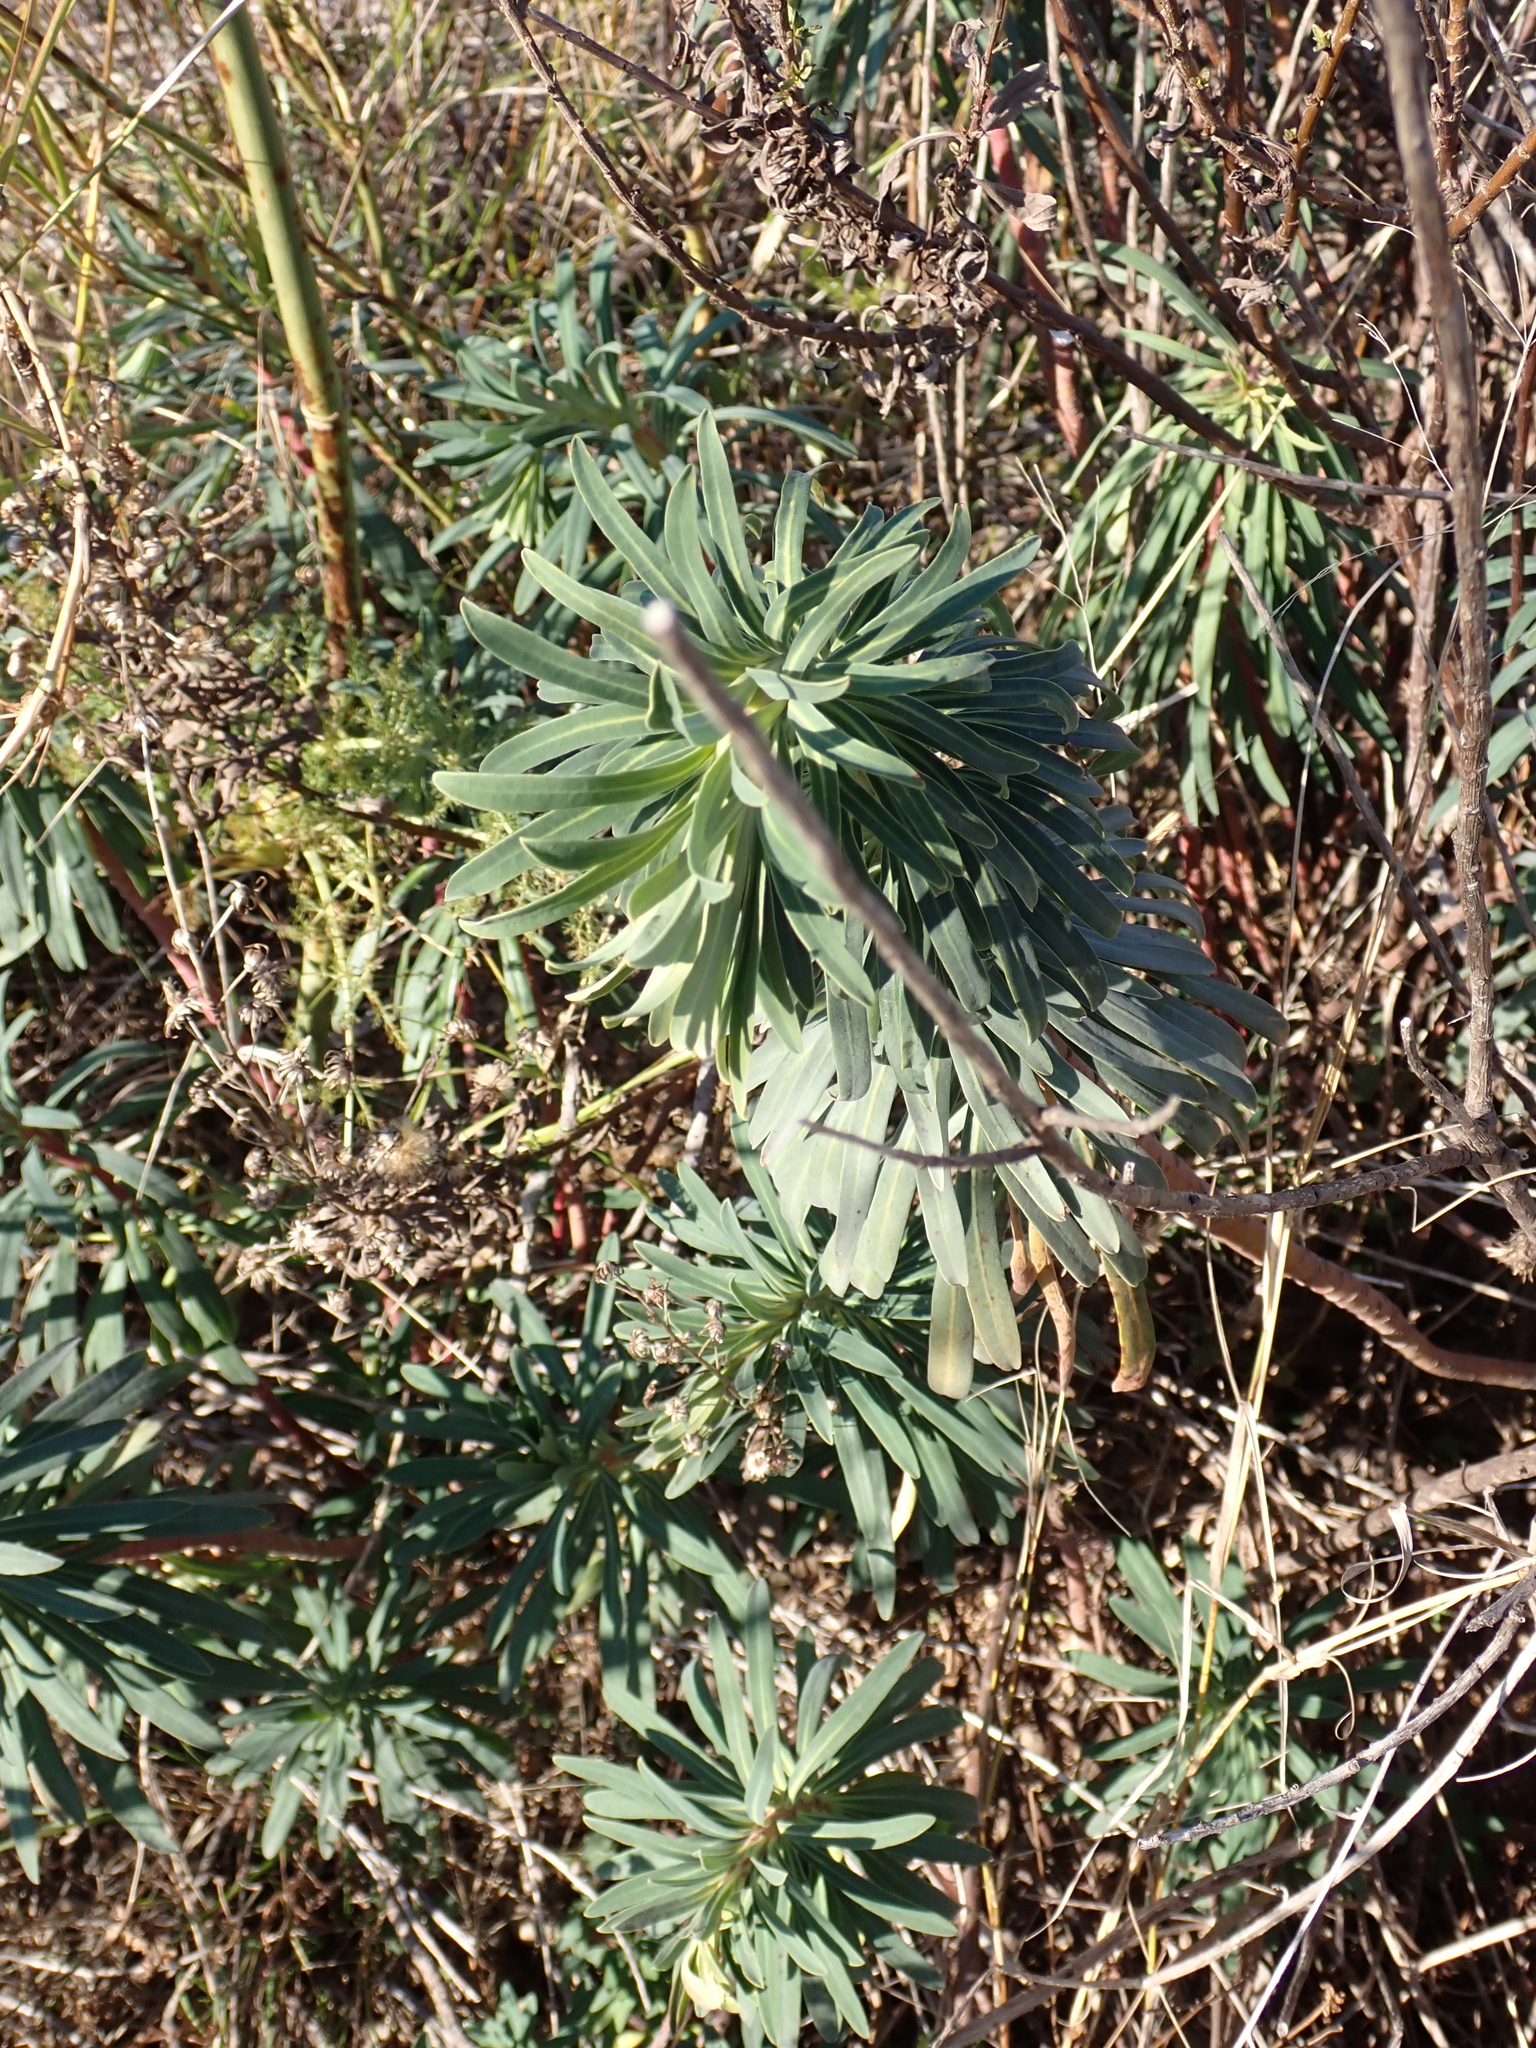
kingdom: Plantae
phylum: Tracheophyta
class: Magnoliopsida
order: Malpighiales
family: Euphorbiaceae
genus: Euphorbia
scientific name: Euphorbia characias
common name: Mediterranean spurge
